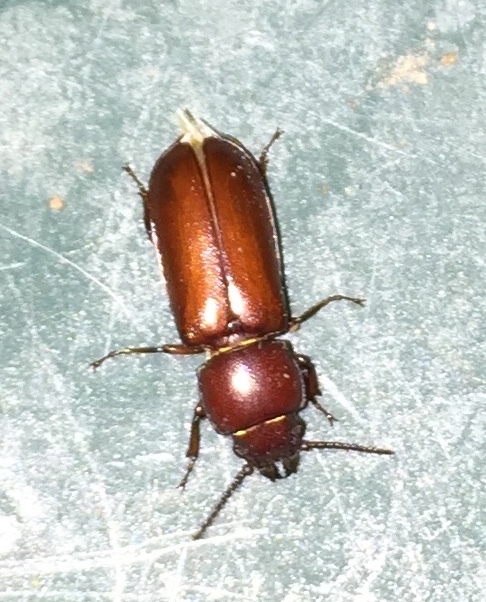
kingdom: Animalia
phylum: Arthropoda
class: Insecta
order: Coleoptera
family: Cerambycidae
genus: Neandra
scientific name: Neandra brunnea
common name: Pole borer
